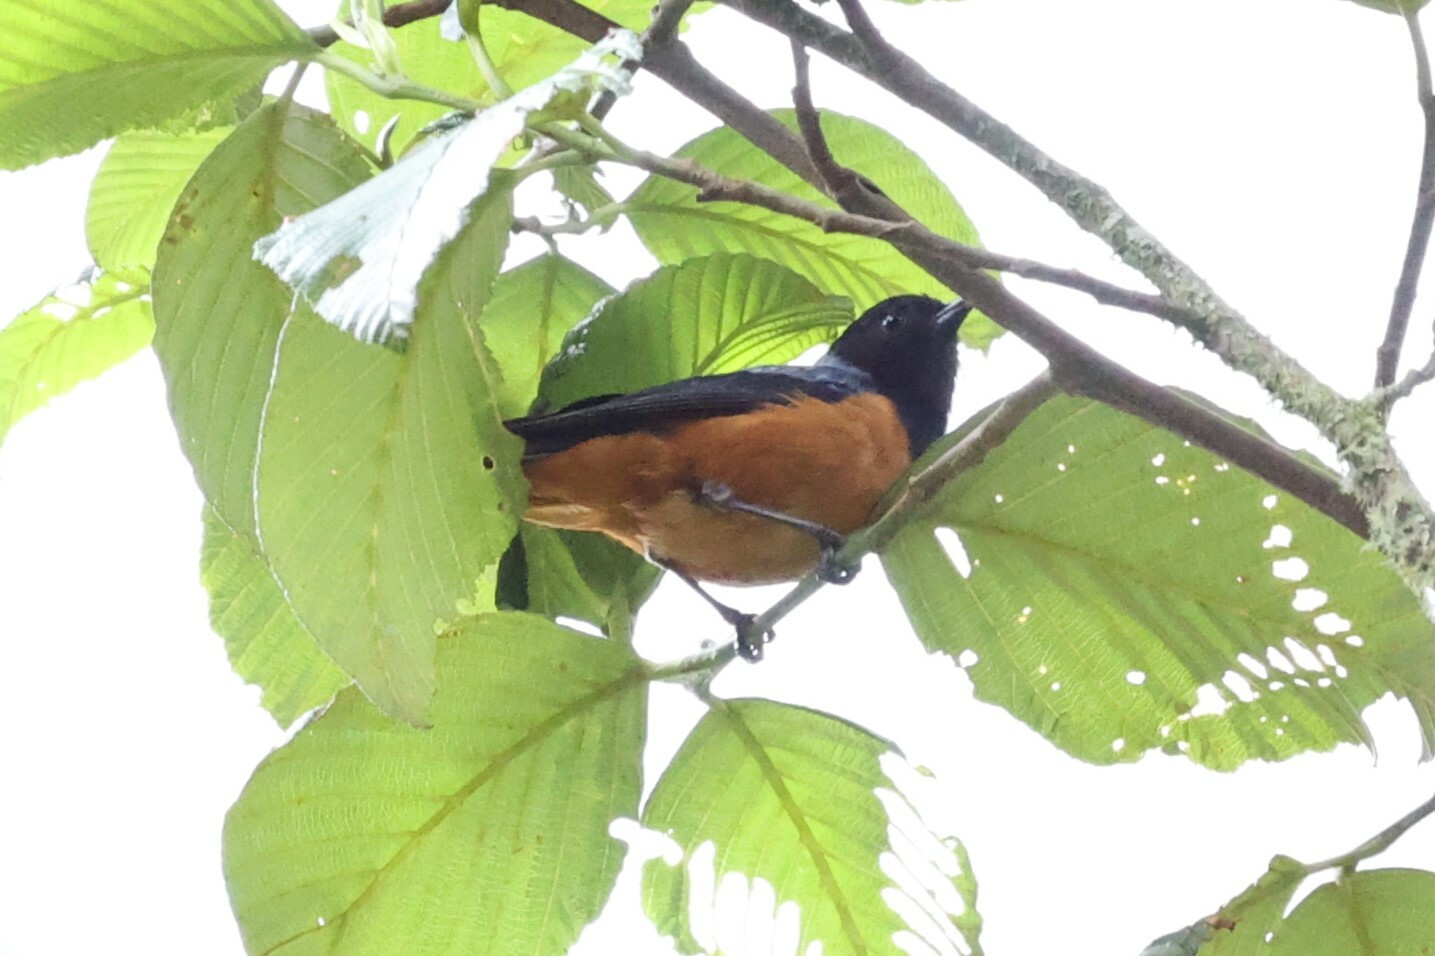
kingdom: Animalia
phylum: Chordata
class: Aves
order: Passeriformes
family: Thraupidae
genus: Conirostrum
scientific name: Conirostrum sitticolor
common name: Blue-backed conebill
